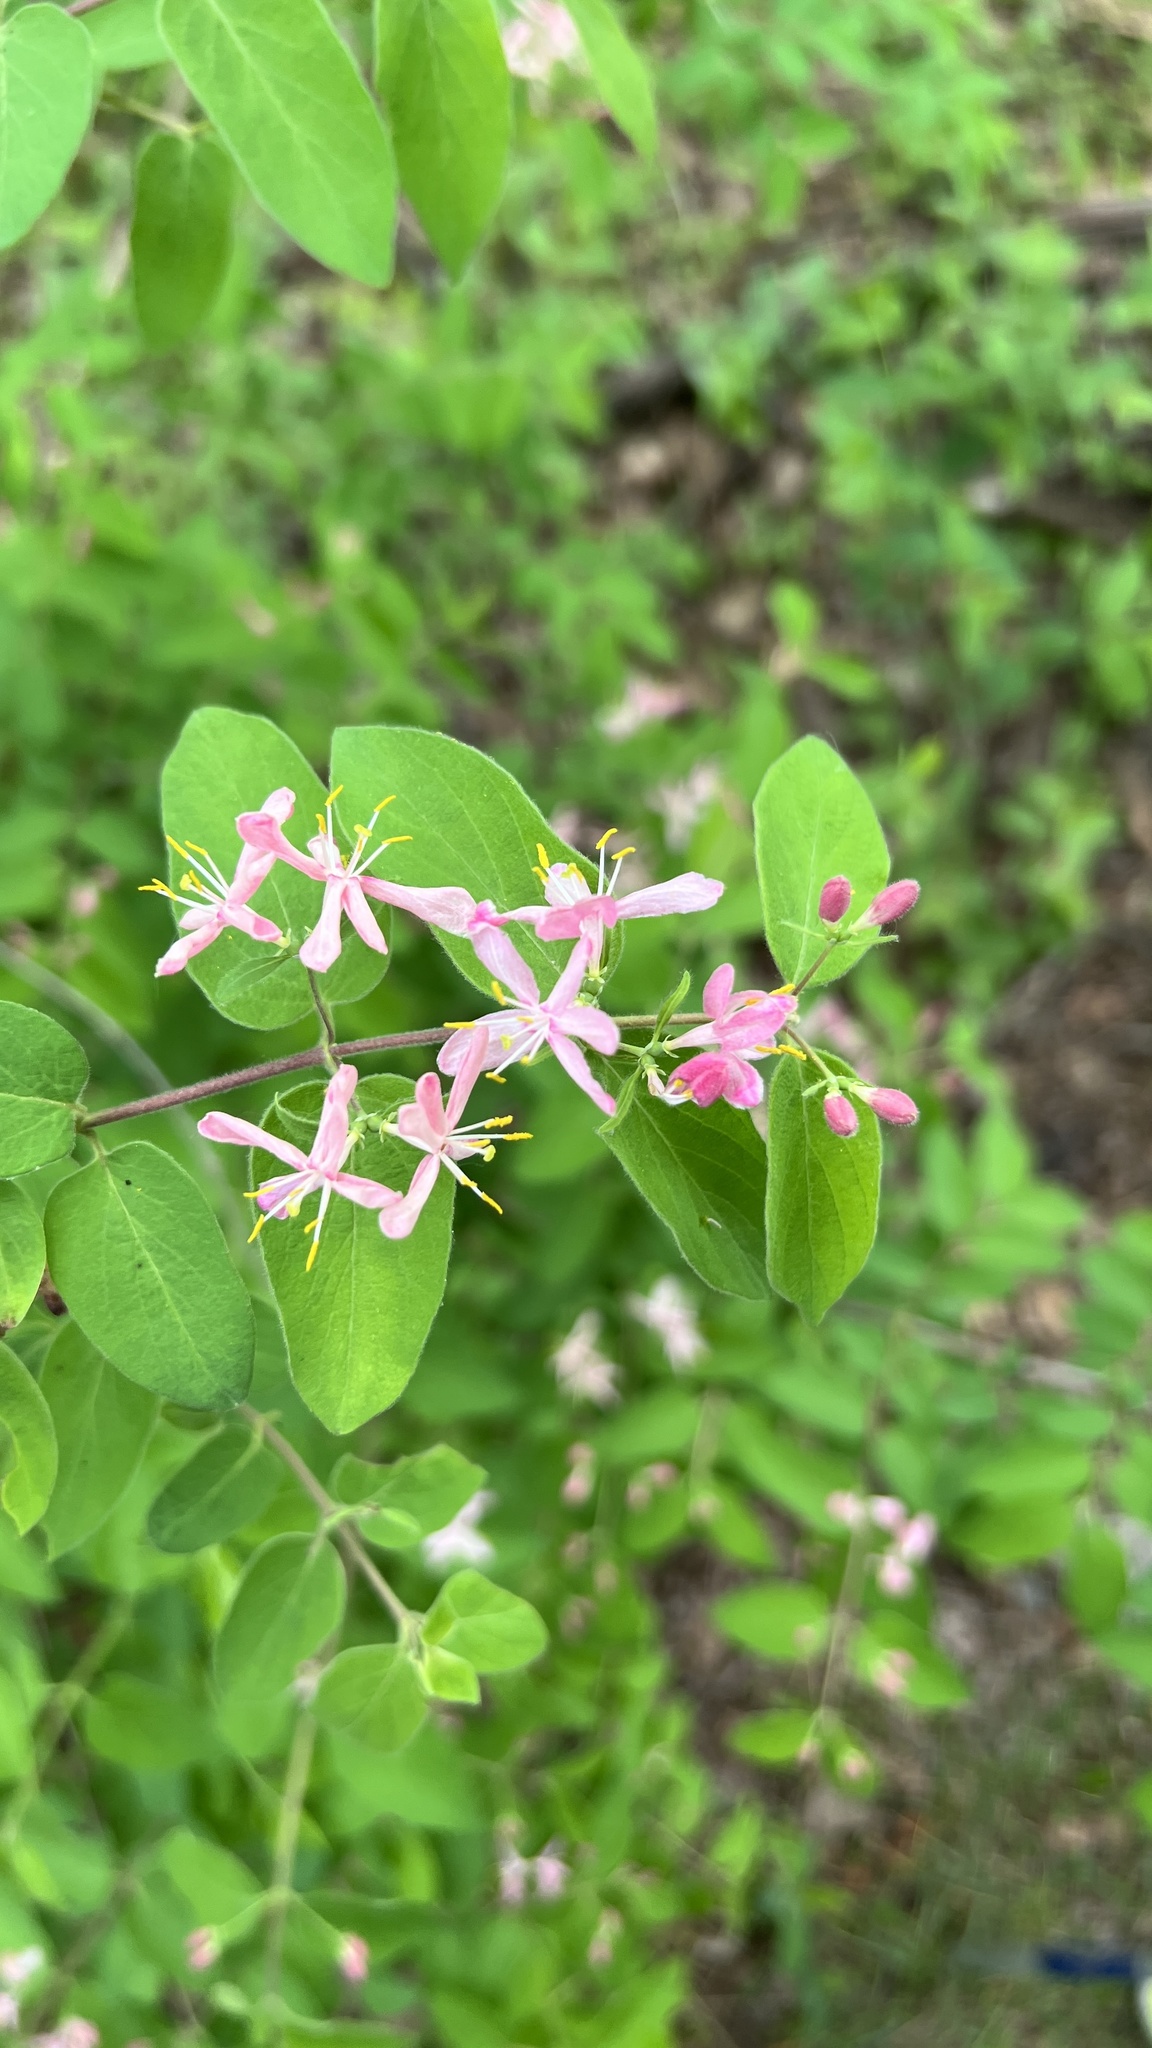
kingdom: Plantae
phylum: Tracheophyta
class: Magnoliopsida
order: Dipsacales
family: Caprifoliaceae
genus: Lonicera
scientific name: Lonicera bella
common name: Bell's honeysuckle
